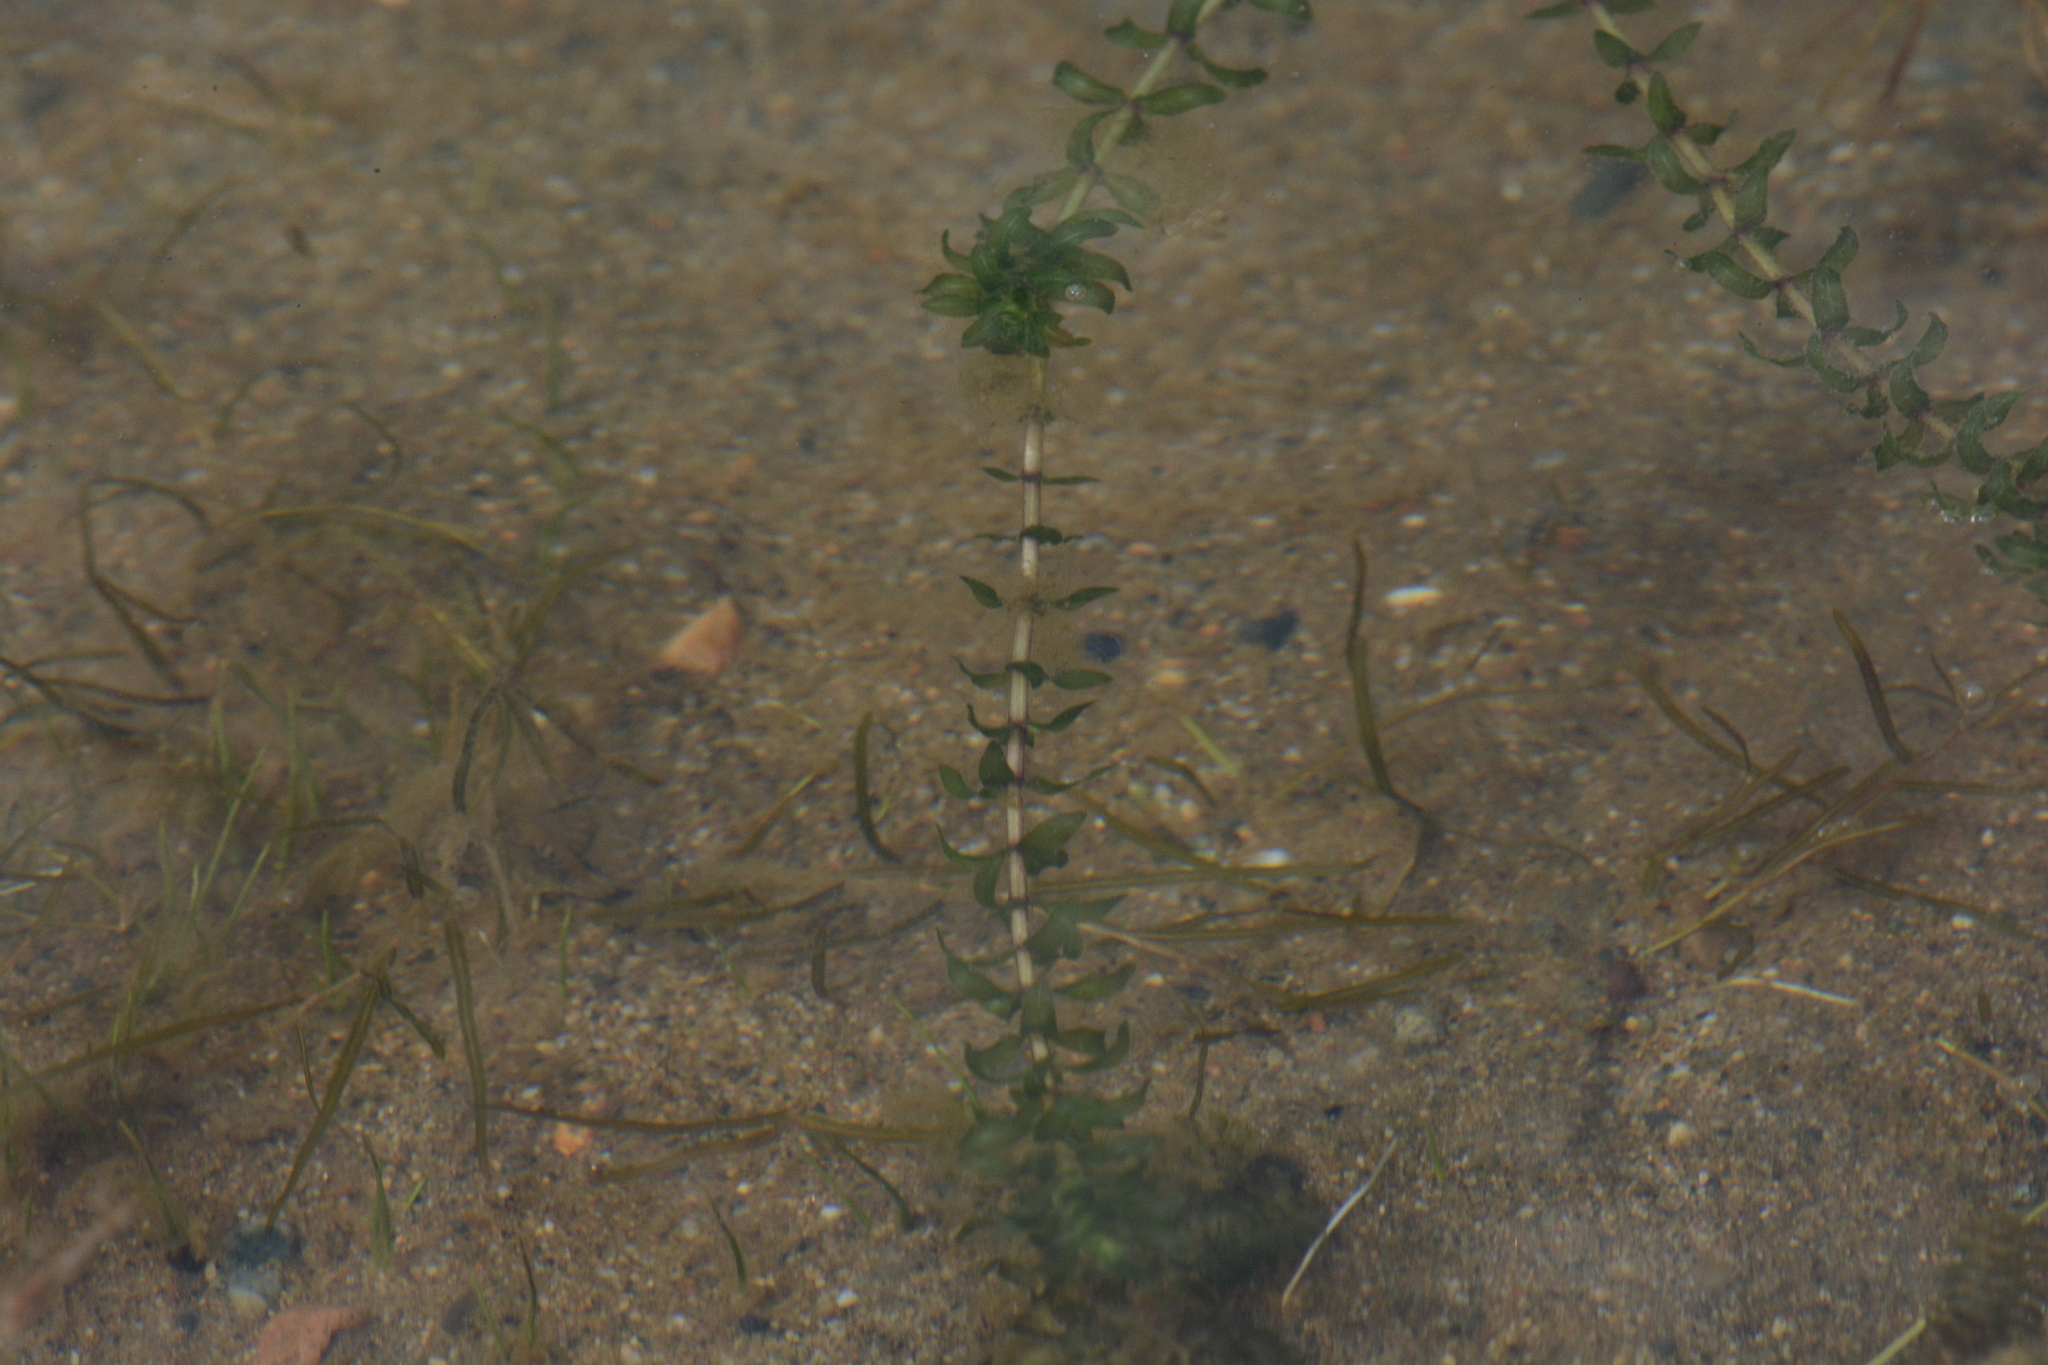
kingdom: Plantae
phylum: Tracheophyta
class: Liliopsida
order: Alismatales
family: Hydrocharitaceae
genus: Elodea
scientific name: Elodea canadensis
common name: Canadian waterweed
